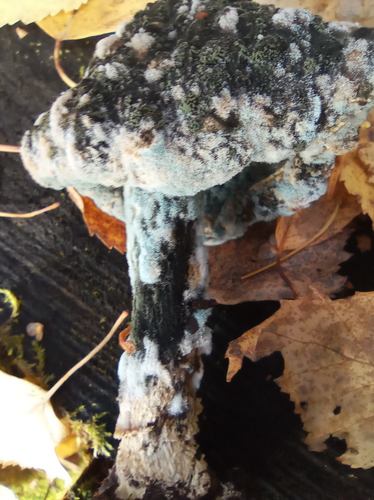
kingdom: Fungi
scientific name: Fungi
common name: Fungi
